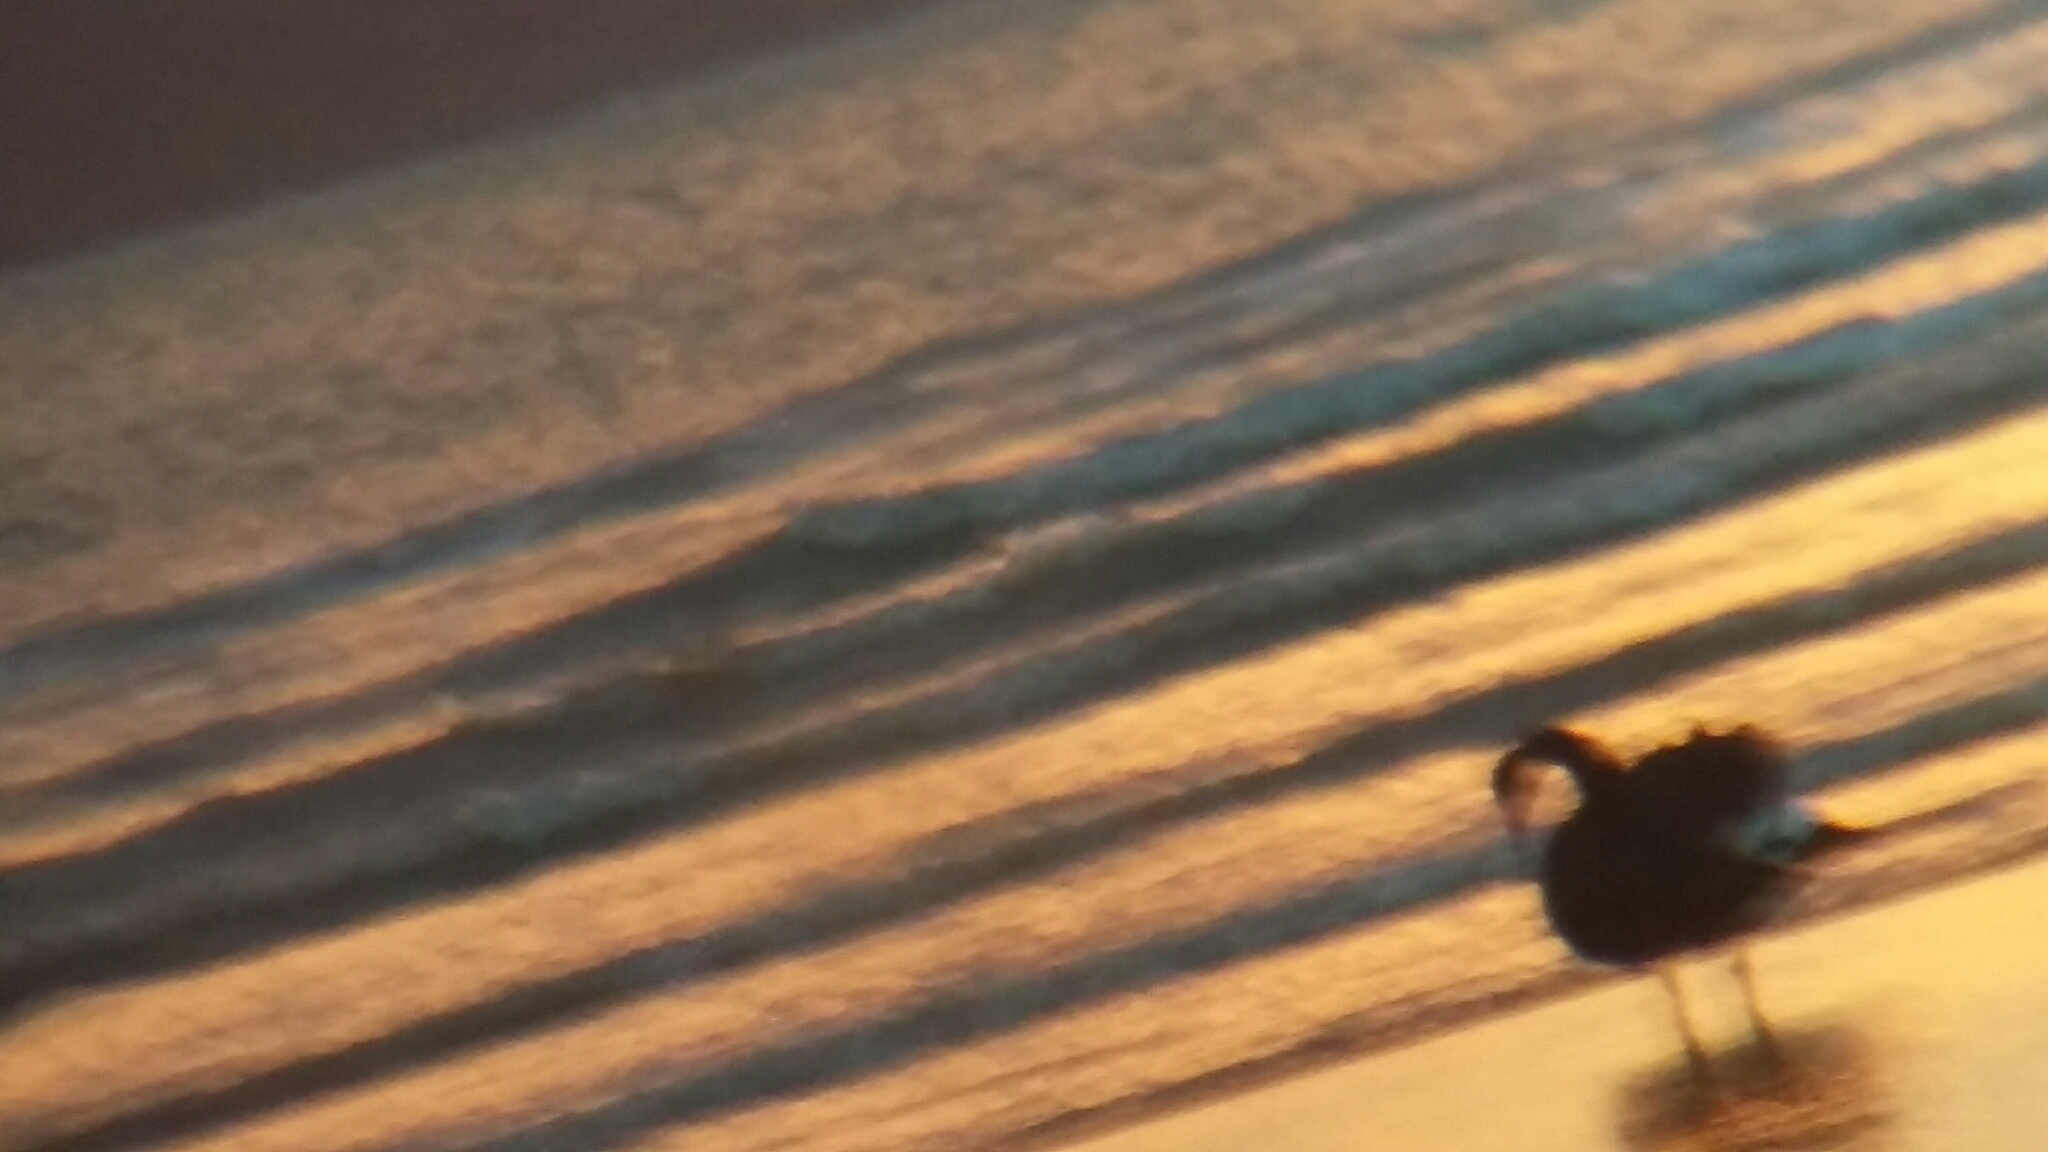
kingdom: Animalia
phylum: Chordata
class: Aves
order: Anseriformes
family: Anatidae
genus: Cygnus
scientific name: Cygnus atratus
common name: Black swan
